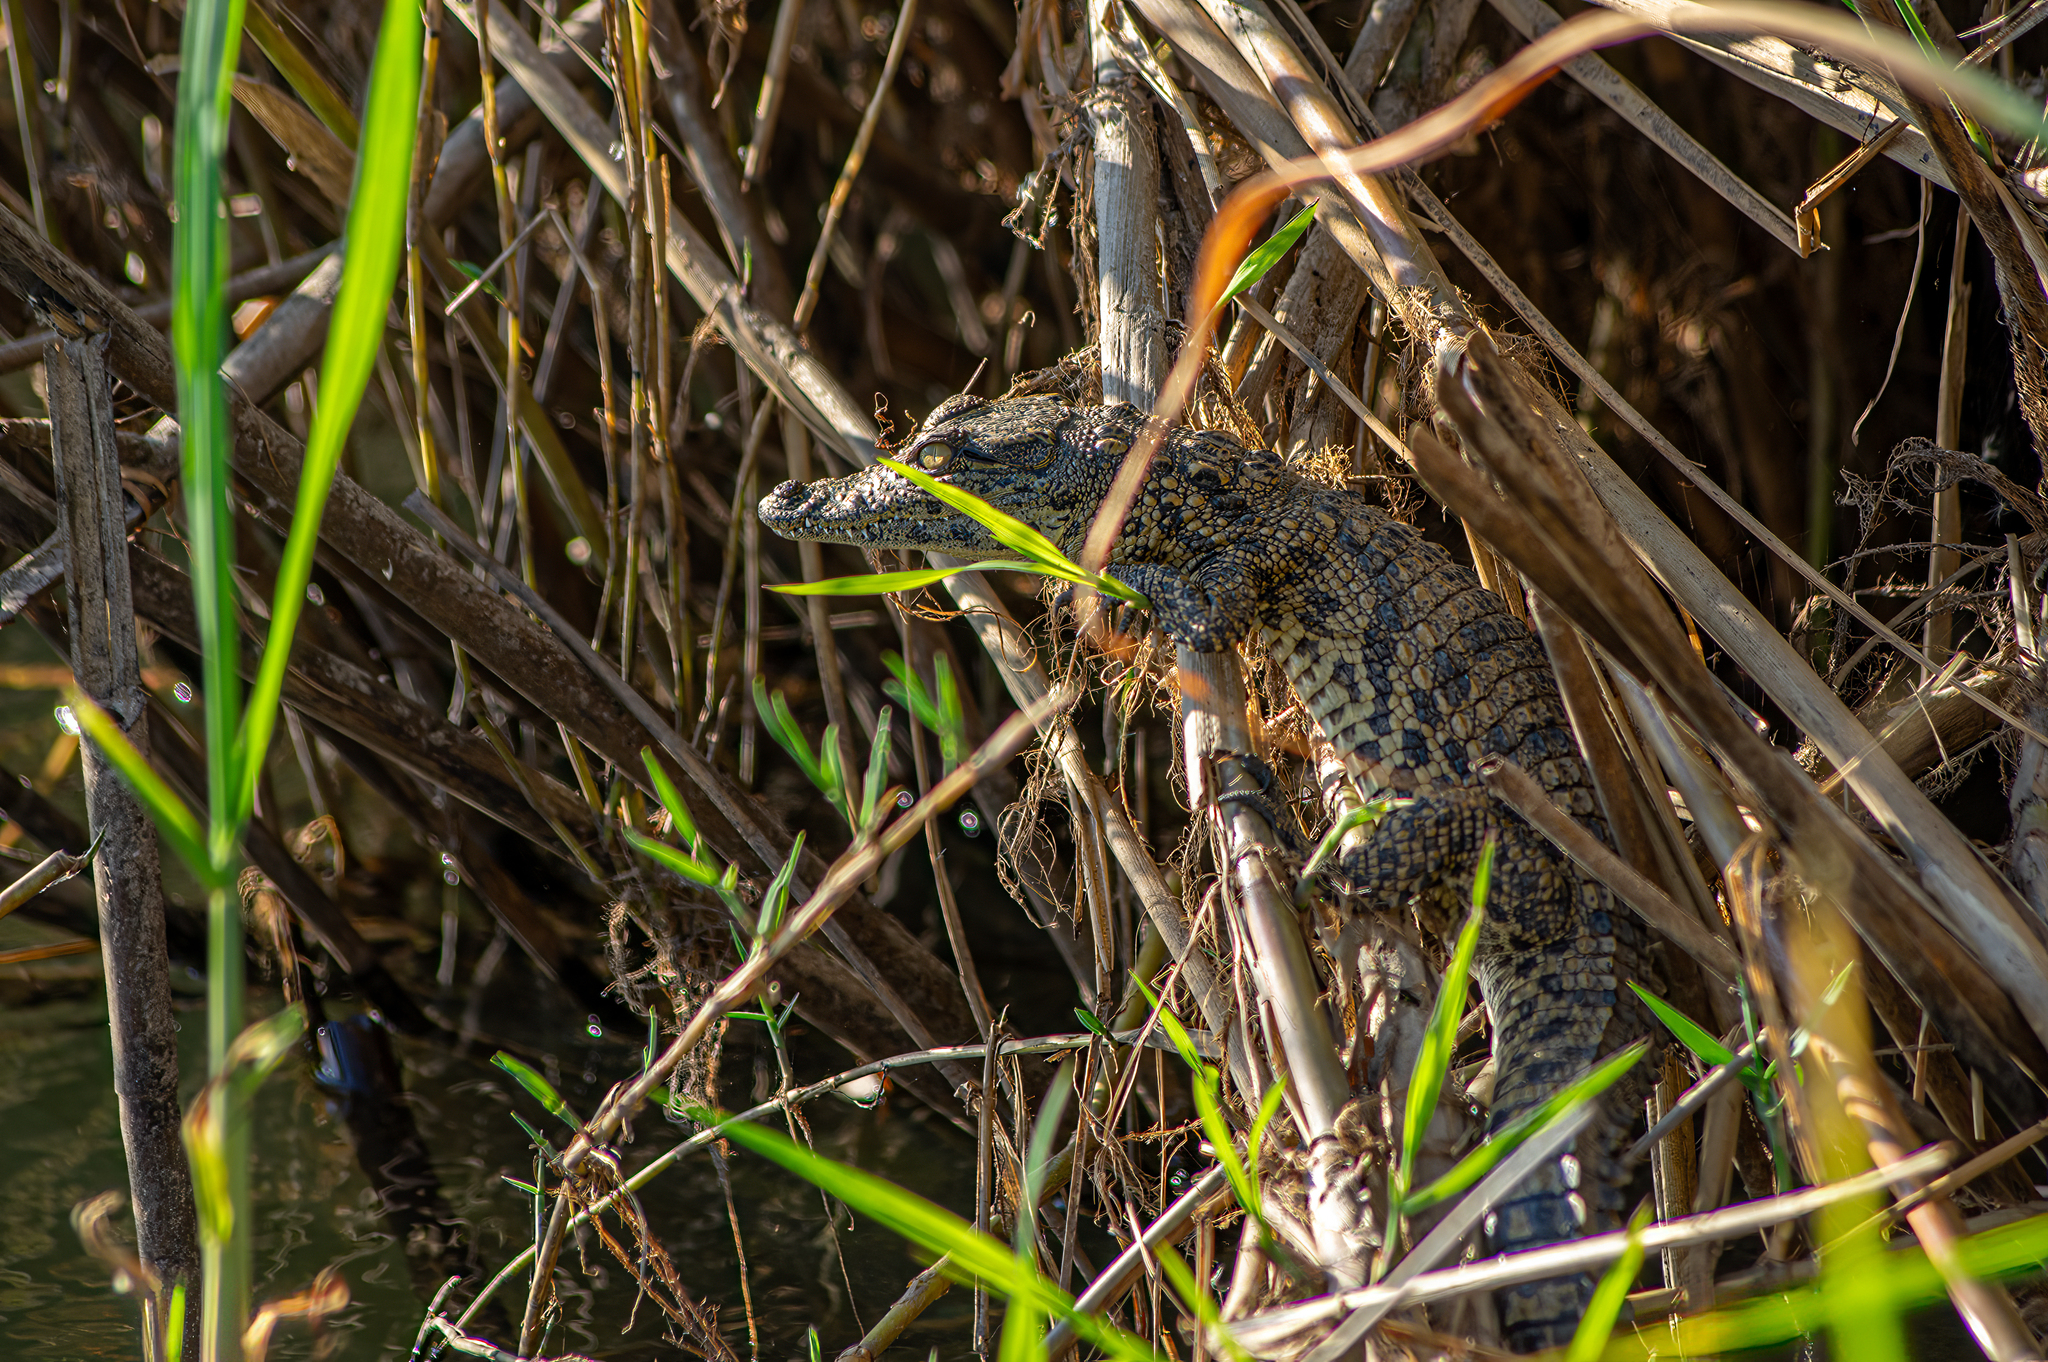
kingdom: Animalia
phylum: Chordata
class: Crocodylia
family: Crocodylidae
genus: Crocodylus
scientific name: Crocodylus niloticus
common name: Nile crocodile
